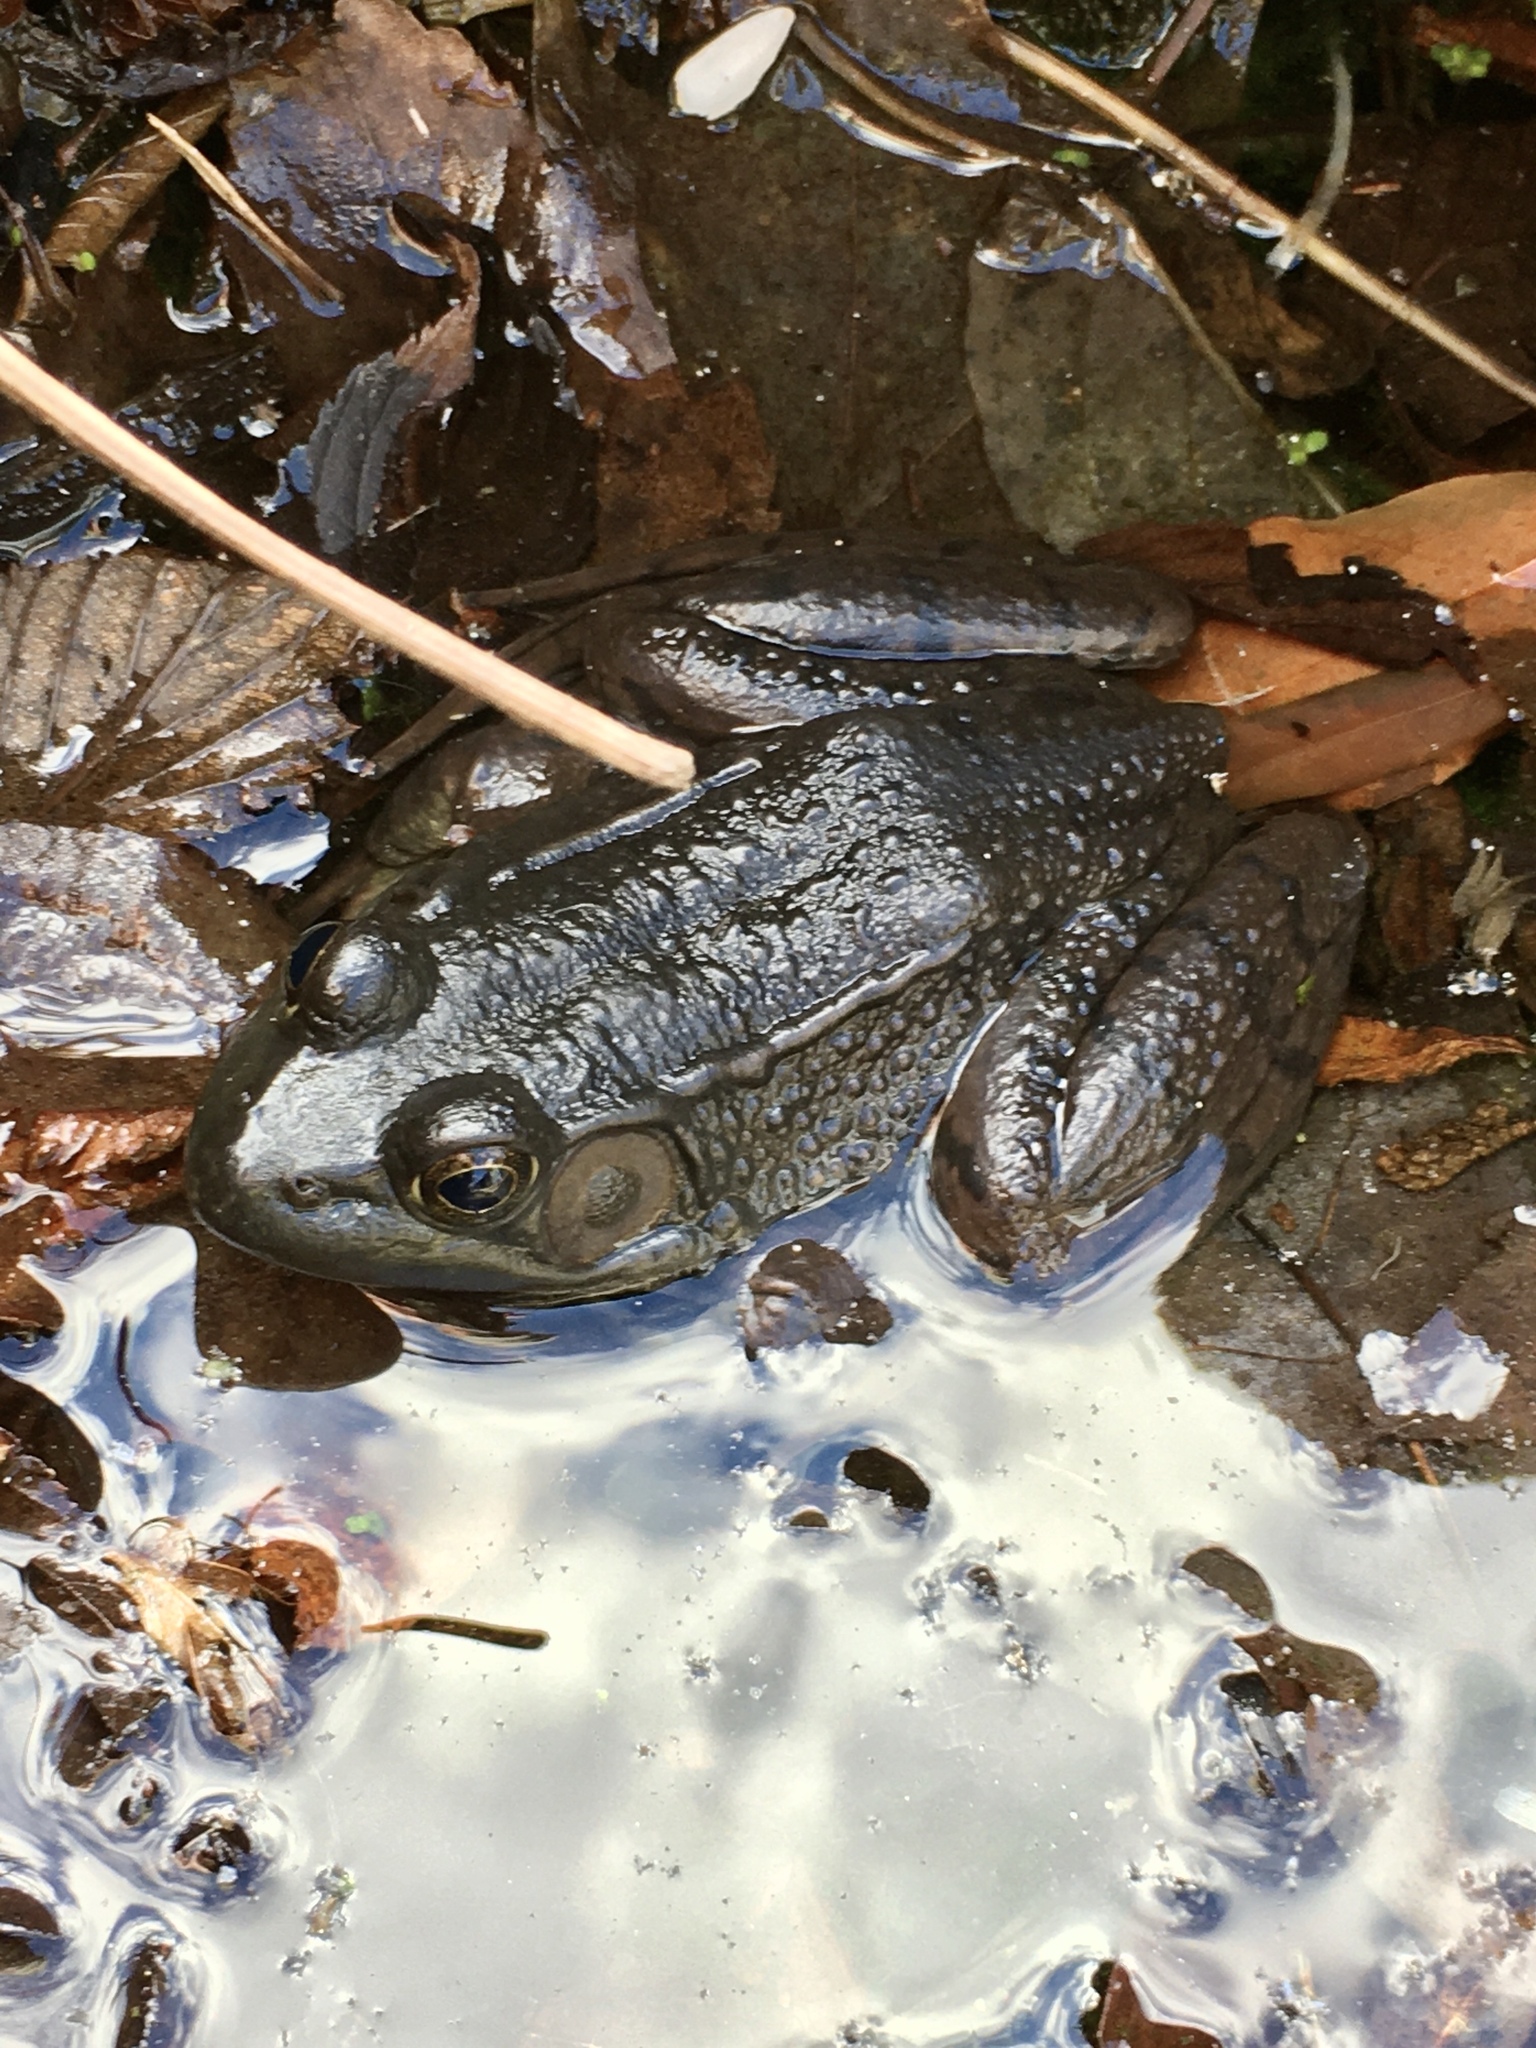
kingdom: Animalia
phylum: Chordata
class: Amphibia
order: Anura
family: Ranidae
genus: Lithobates
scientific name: Lithobates clamitans
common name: Green frog
